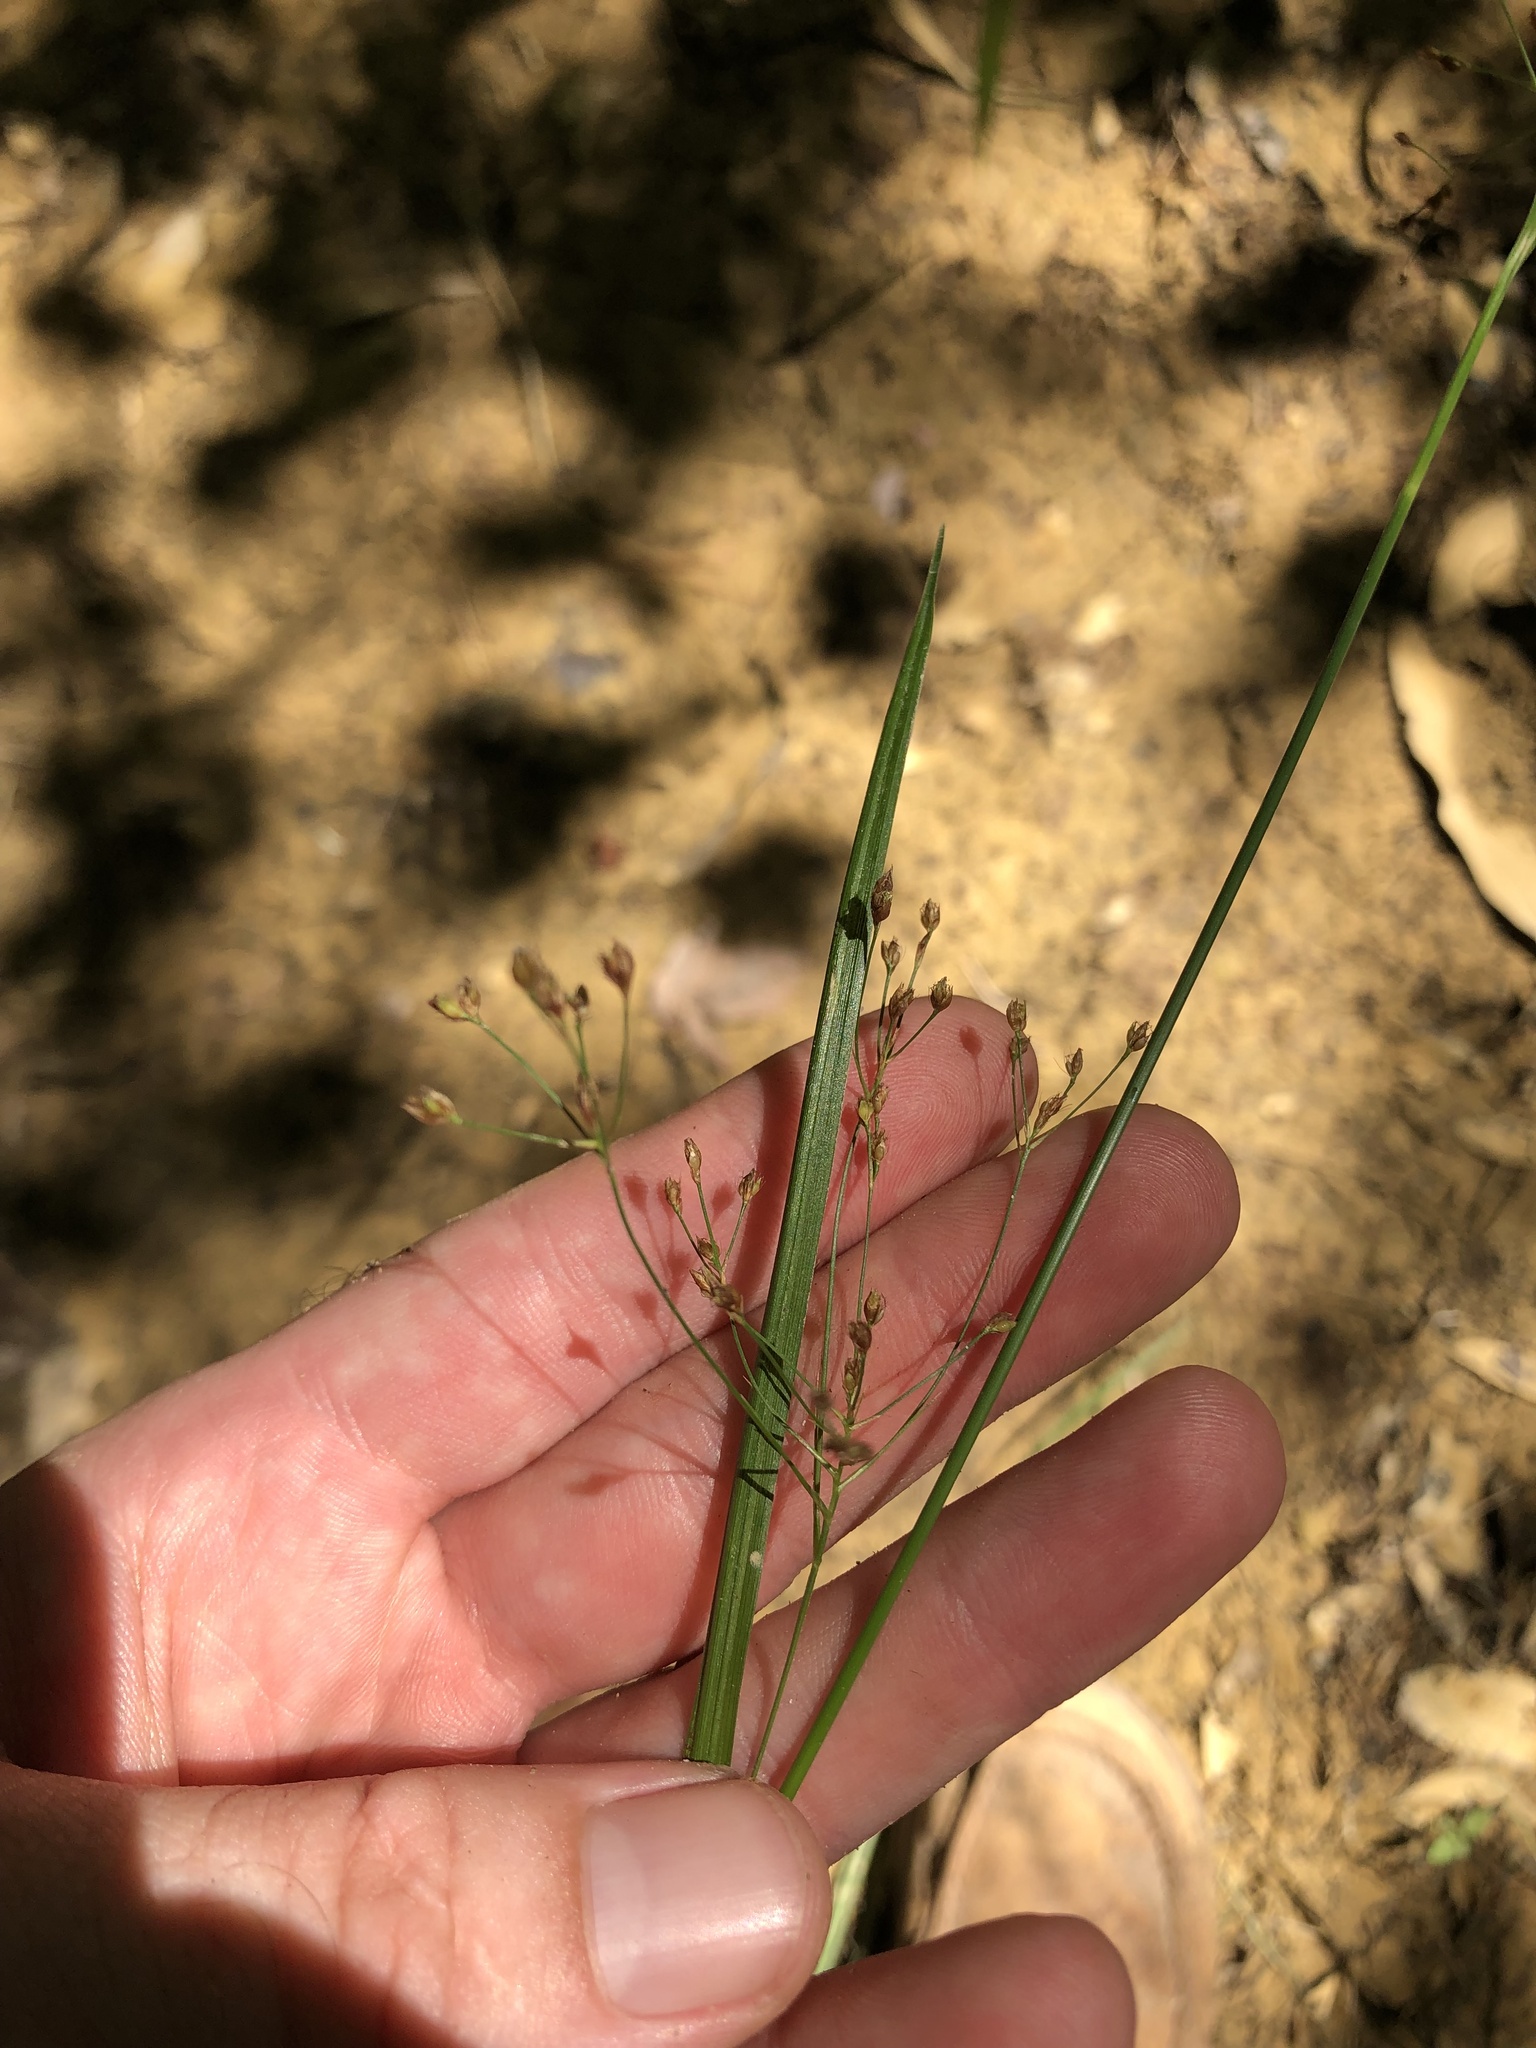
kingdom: Plantae
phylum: Tracheophyta
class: Liliopsida
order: Poales
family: Cyperaceae
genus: Rhynchospora
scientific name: Rhynchospora mixta
